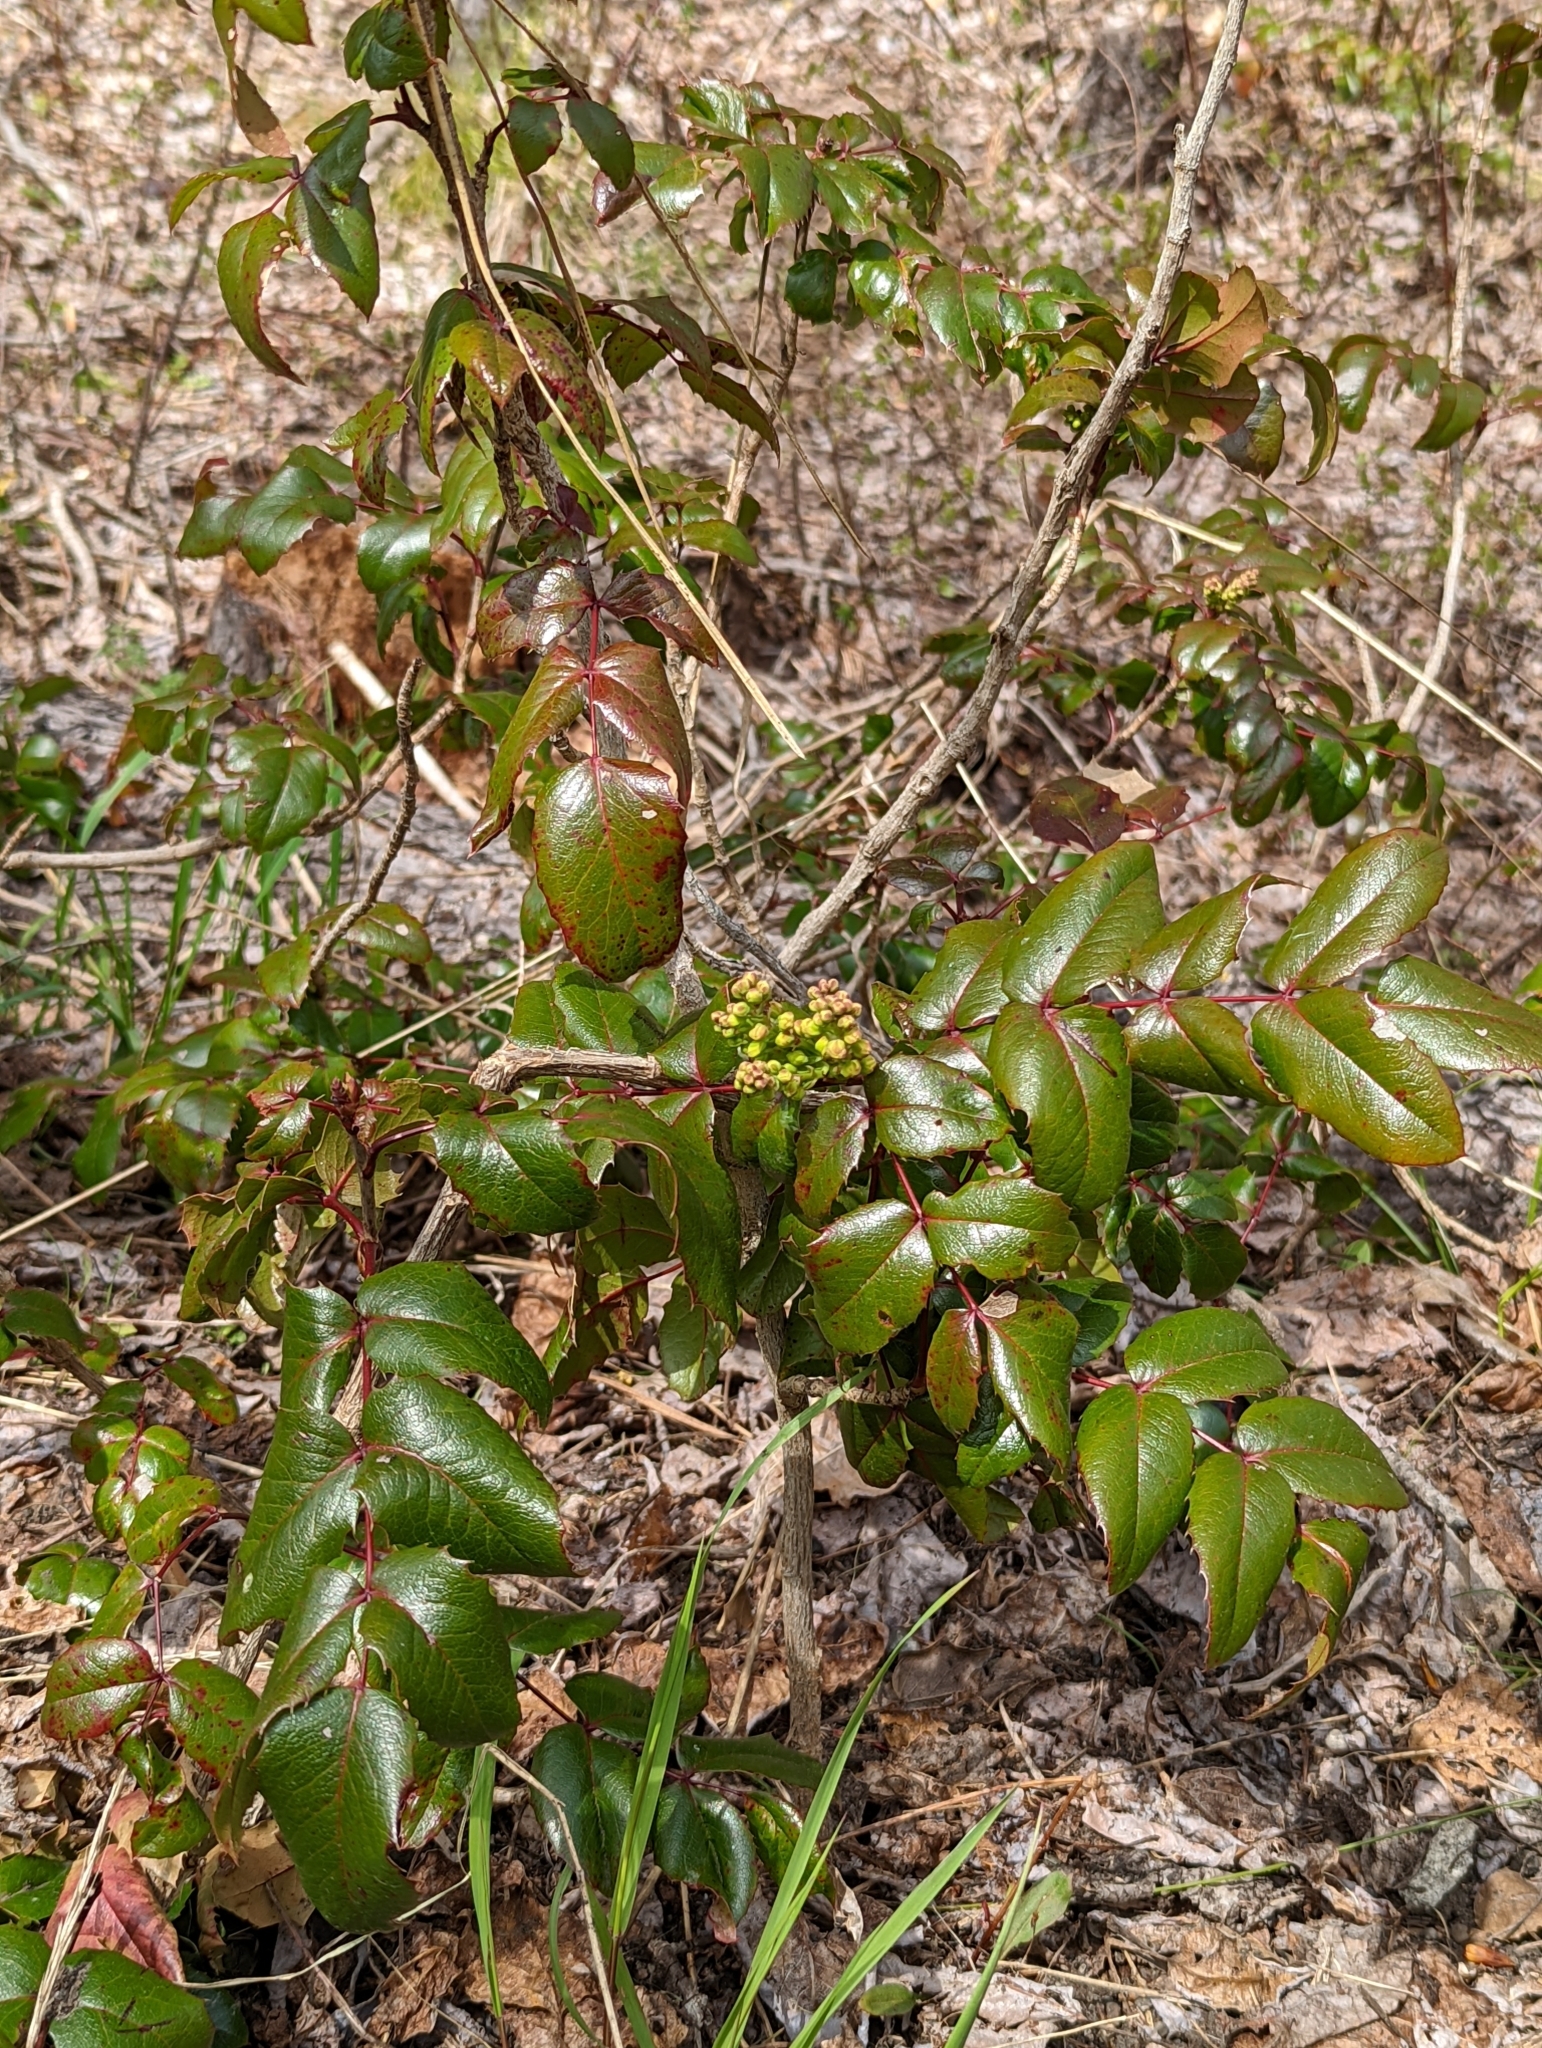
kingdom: Plantae
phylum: Tracheophyta
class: Magnoliopsida
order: Ranunculales
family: Berberidaceae
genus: Mahonia
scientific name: Mahonia aquifolium
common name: Oregon-grape
